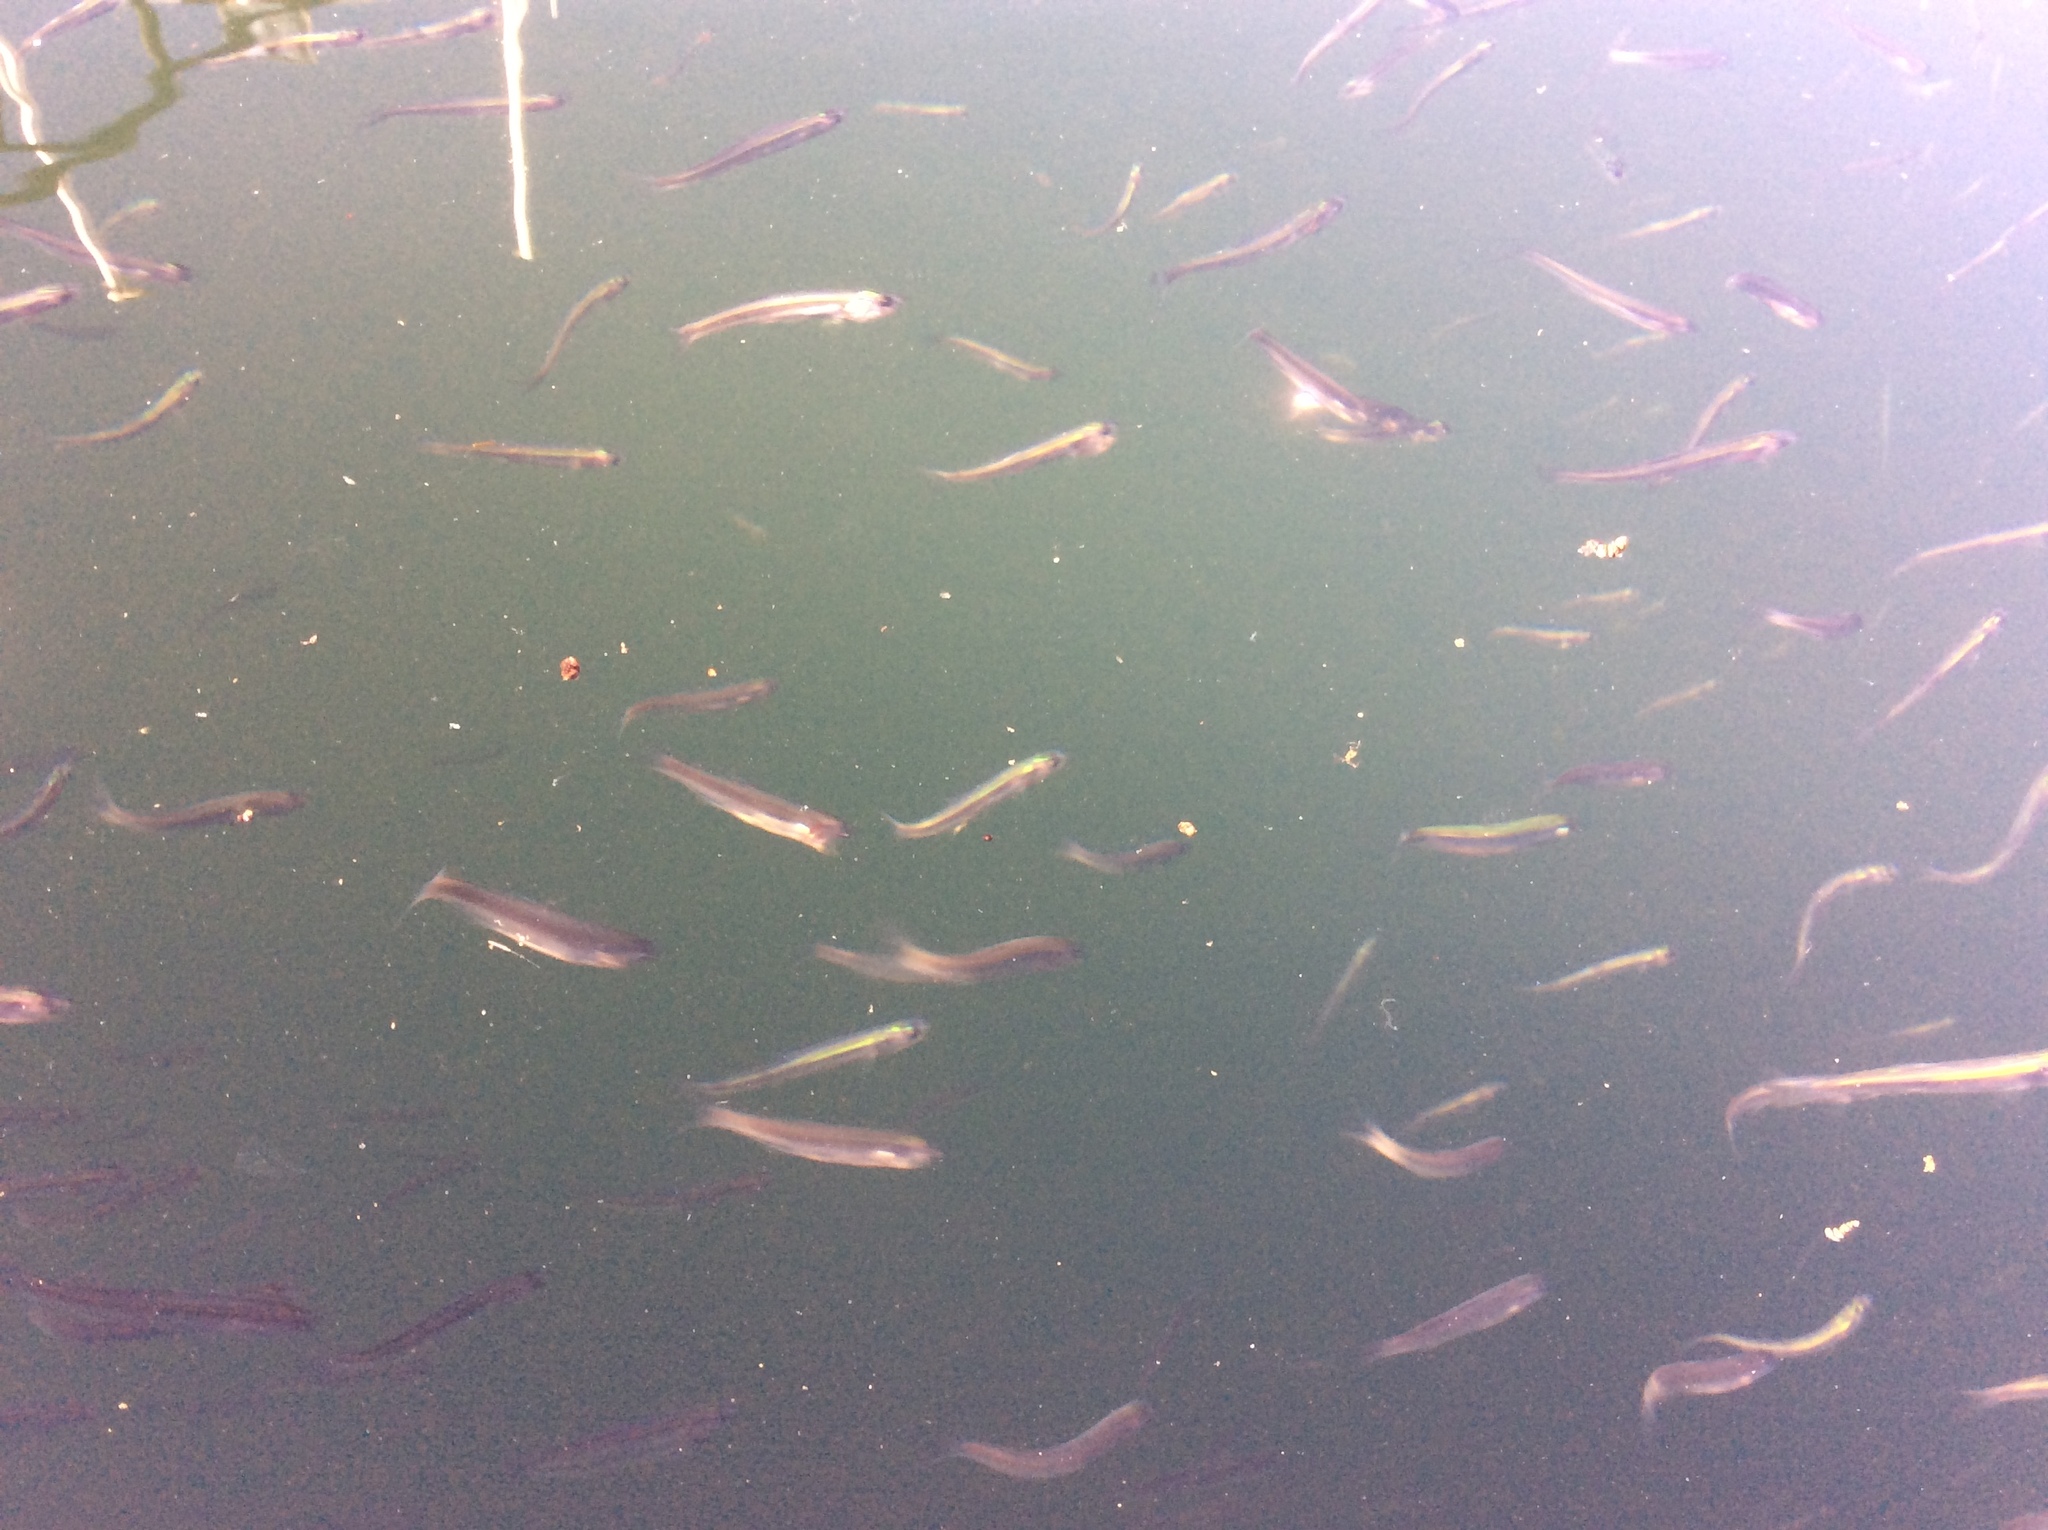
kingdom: Animalia
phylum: Chordata
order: Clupeiformes
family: Engraulidae
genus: Engraulis
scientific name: Engraulis mordax
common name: Northern anchovy
